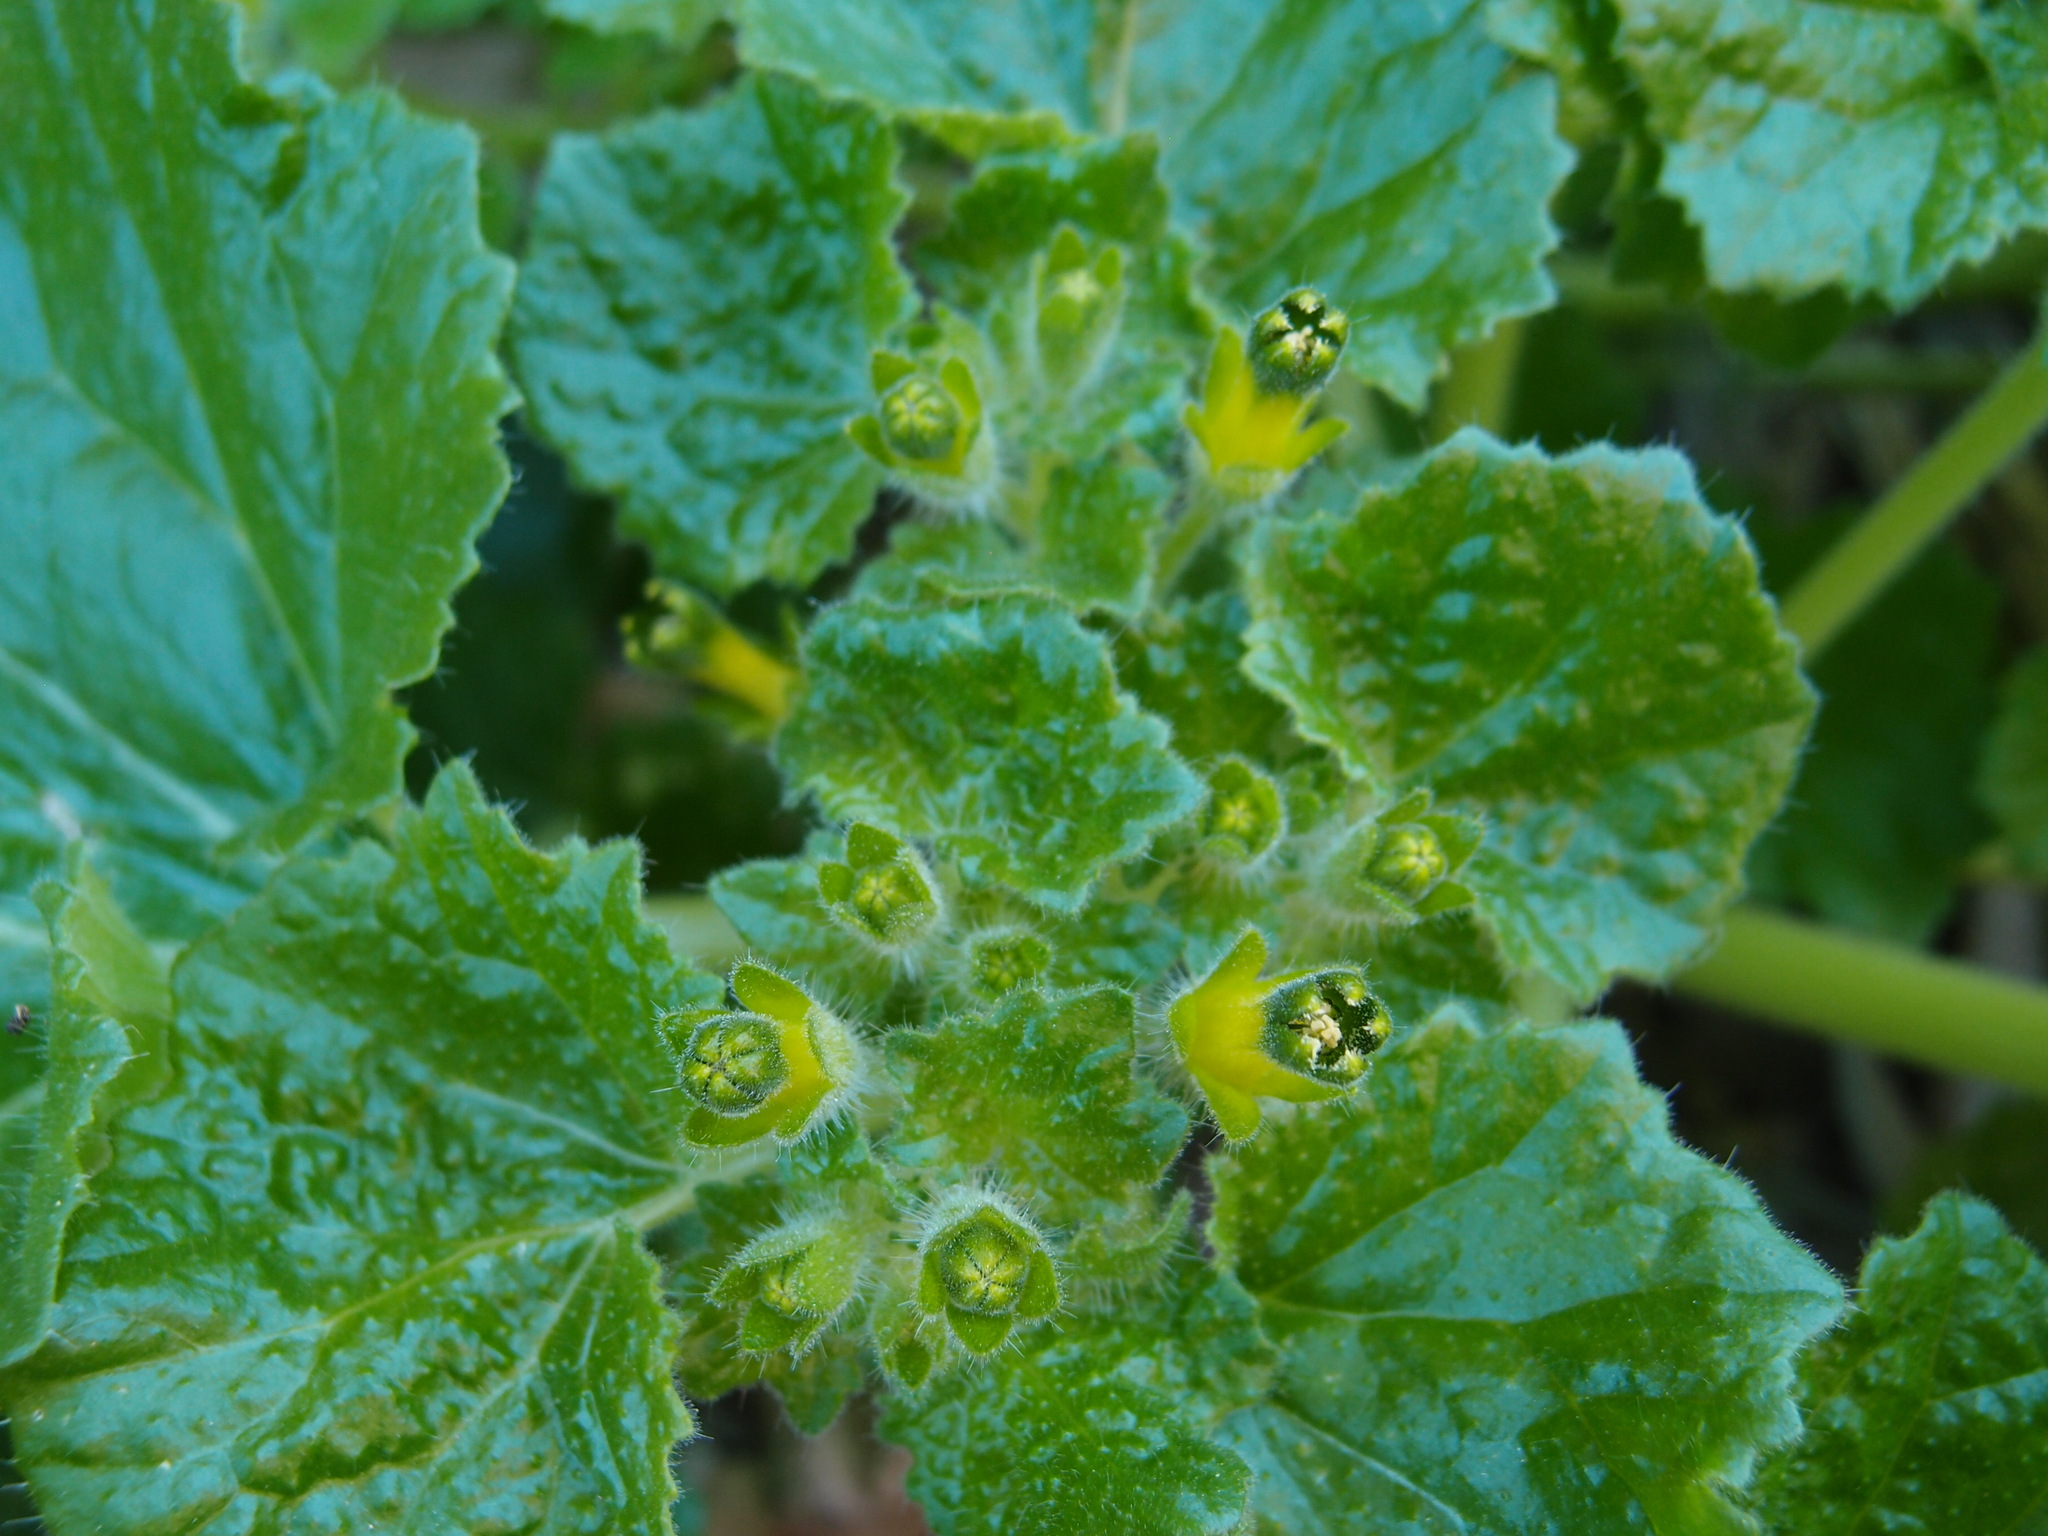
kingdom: Plantae
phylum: Tracheophyta
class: Magnoliopsida
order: Cornales
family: Loasaceae
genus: Eucnide
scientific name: Eucnide rupestris
